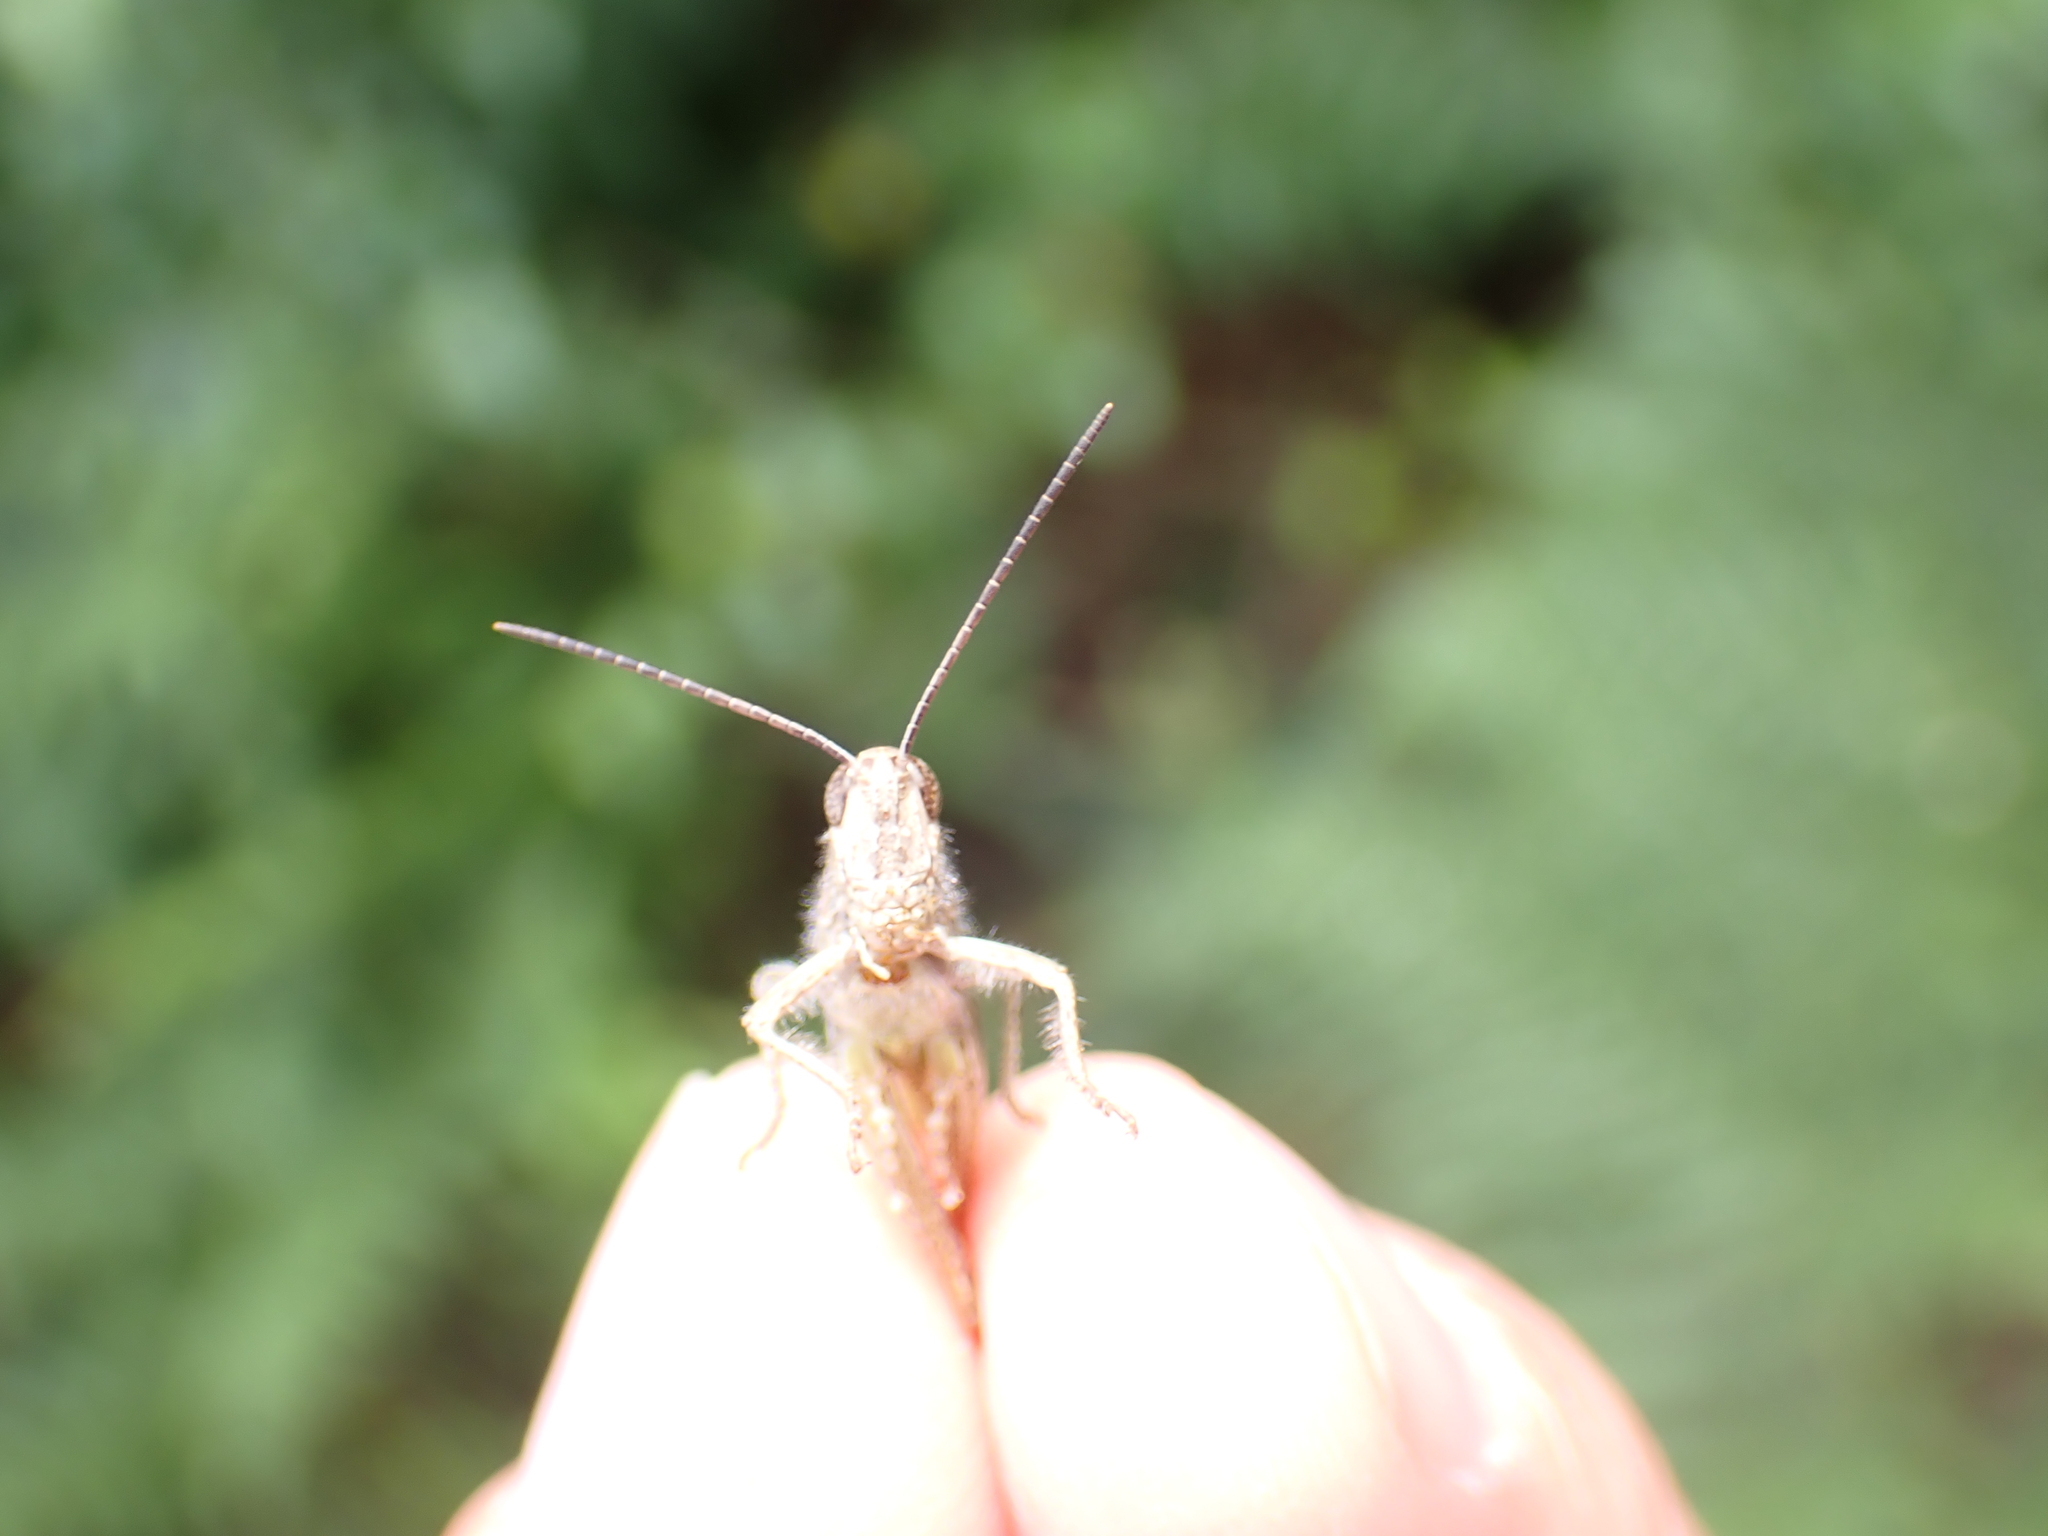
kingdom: Animalia
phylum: Arthropoda
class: Insecta
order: Orthoptera
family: Acrididae
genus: Chorthippus
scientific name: Chorthippus brunneus
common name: Field grasshopper
